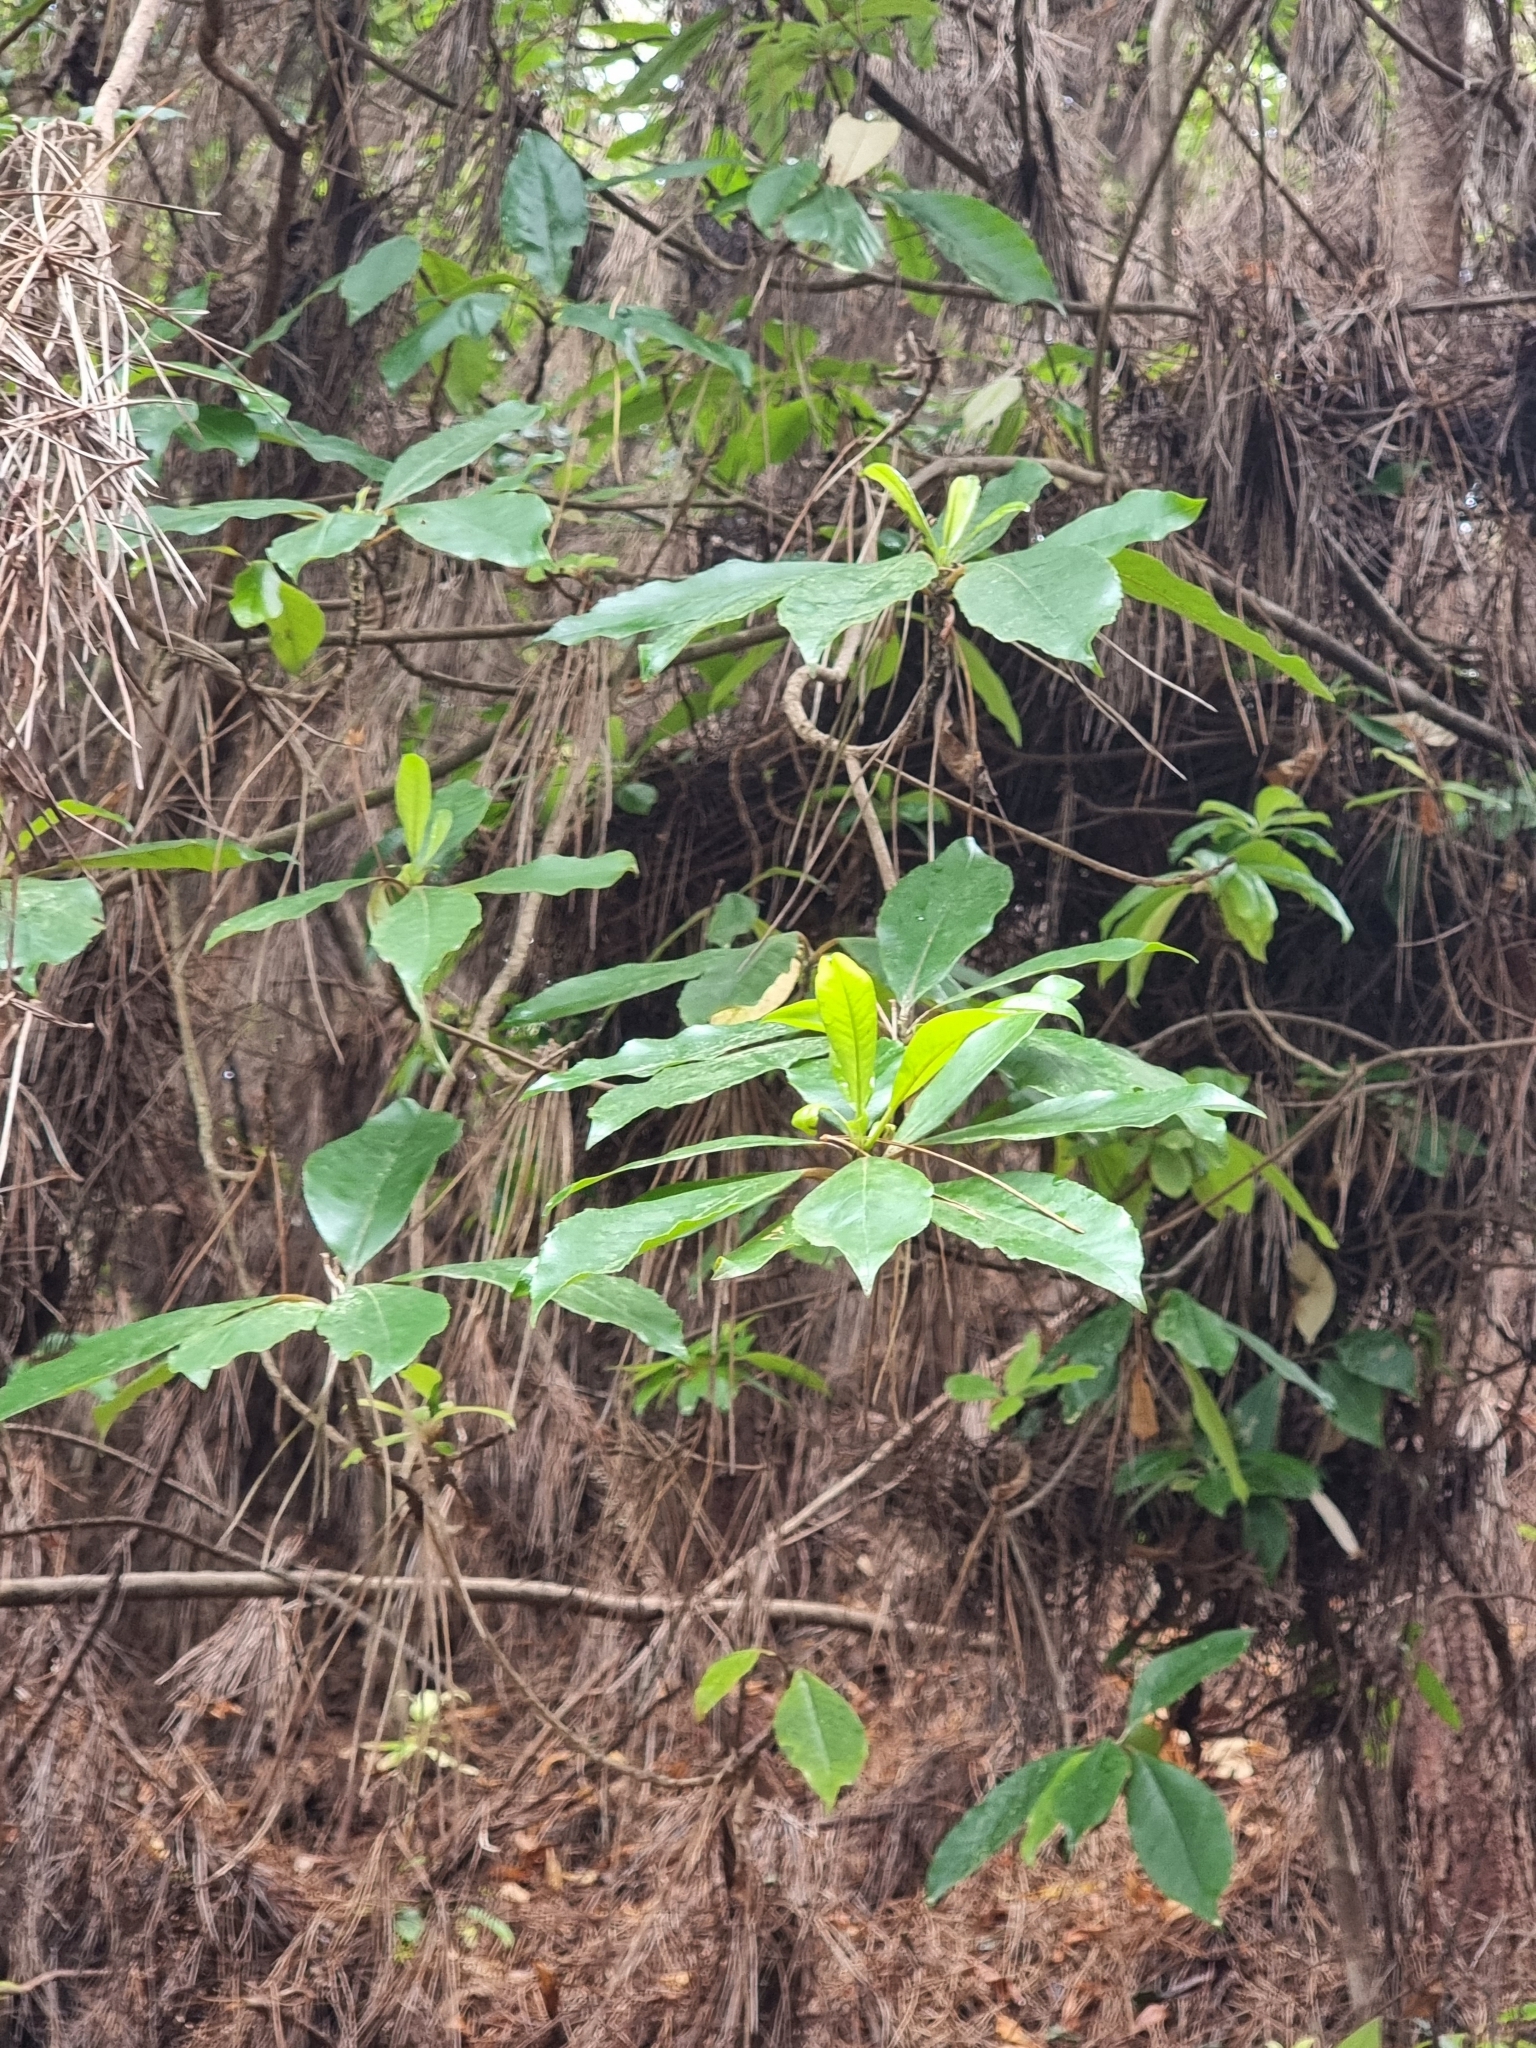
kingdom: Plantae
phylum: Tracheophyta
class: Magnoliopsida
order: Ericales
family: Clethraceae
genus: Clethra
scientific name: Clethra arborea
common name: Lily-of-the-valley-tree
